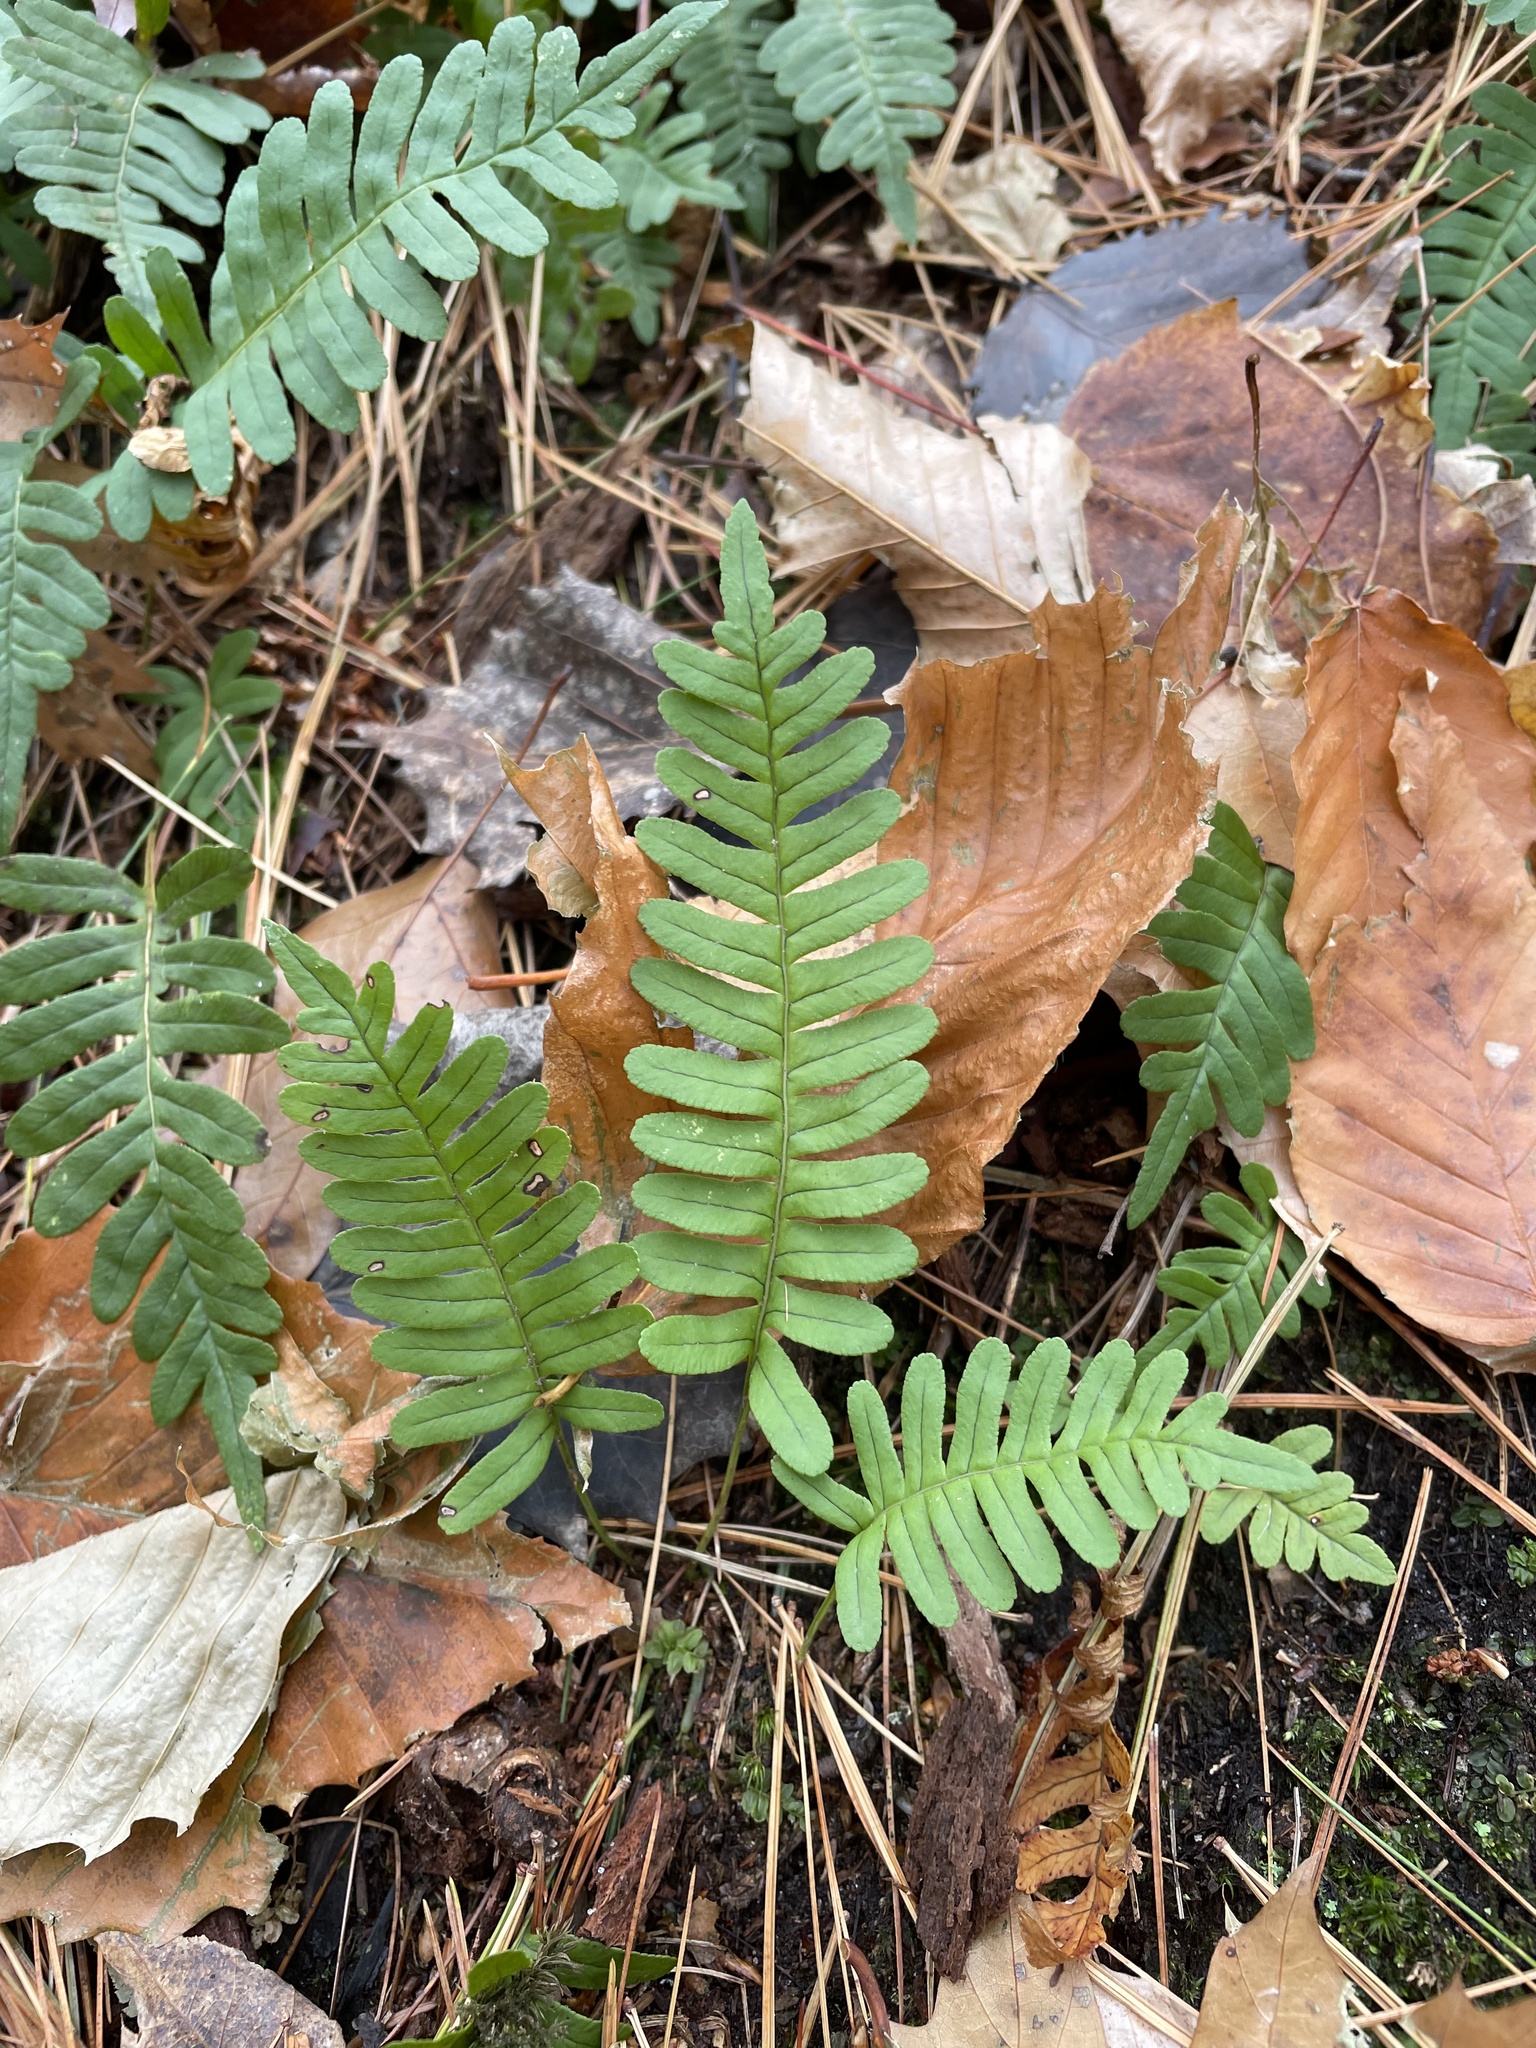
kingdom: Plantae
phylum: Tracheophyta
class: Polypodiopsida
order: Polypodiales
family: Polypodiaceae
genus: Polypodium
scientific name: Polypodium virginianum
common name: American wall fern
